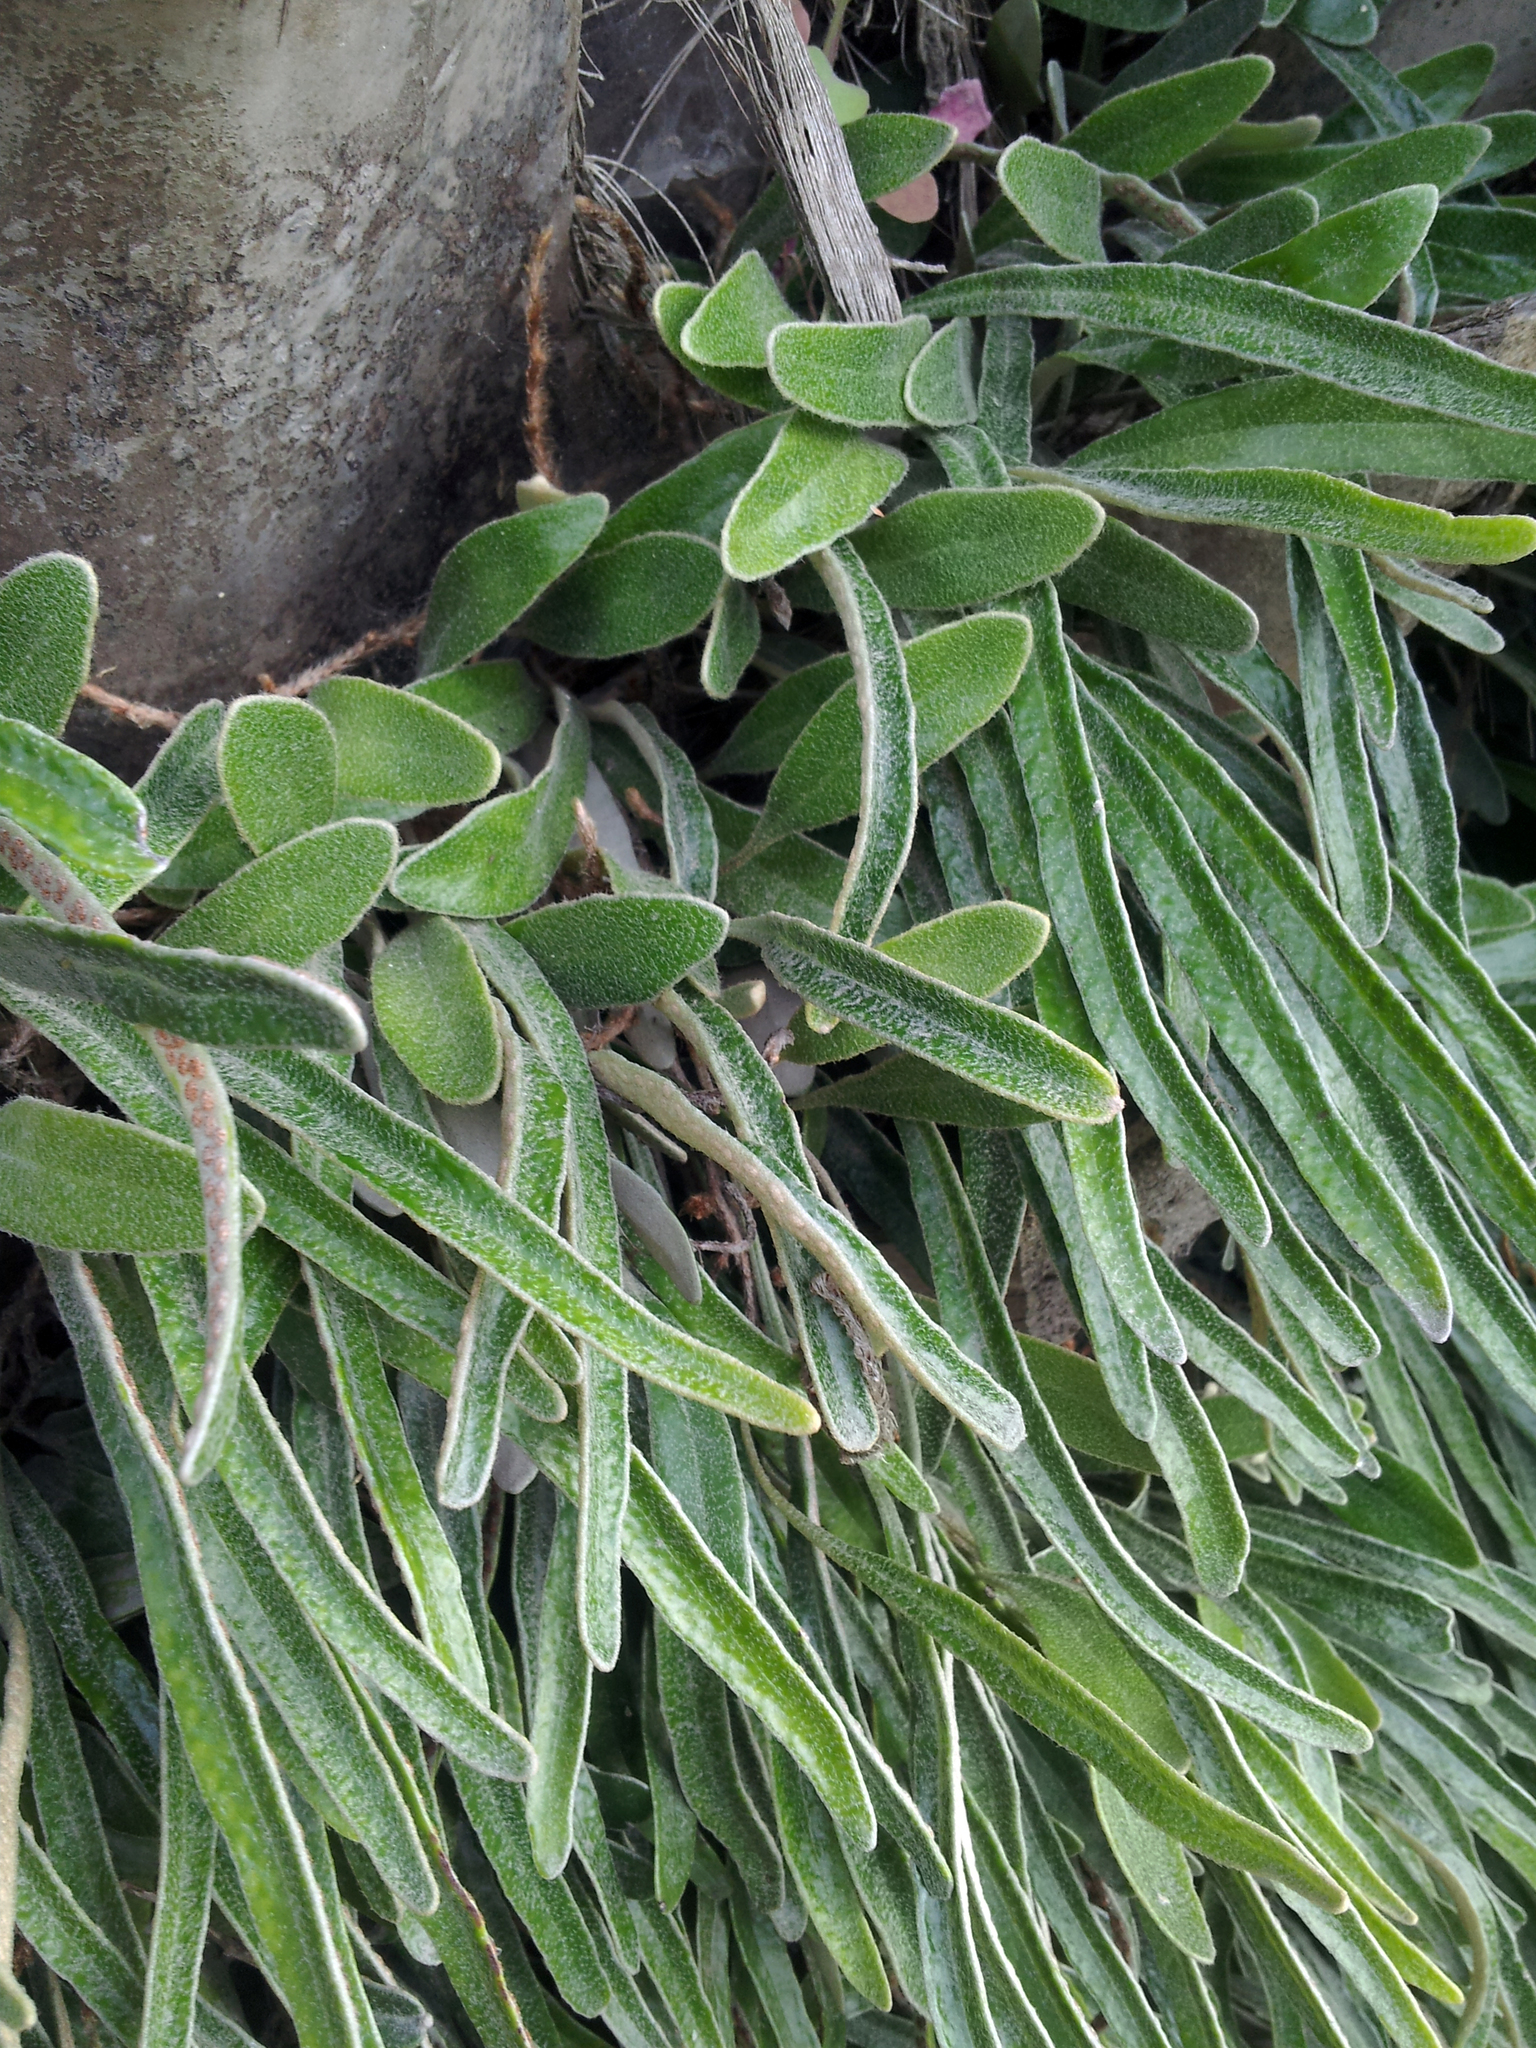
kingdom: Plantae
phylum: Tracheophyta
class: Polypodiopsida
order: Polypodiales
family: Polypodiaceae
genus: Pyrrosia
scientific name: Pyrrosia eleagnifolia
